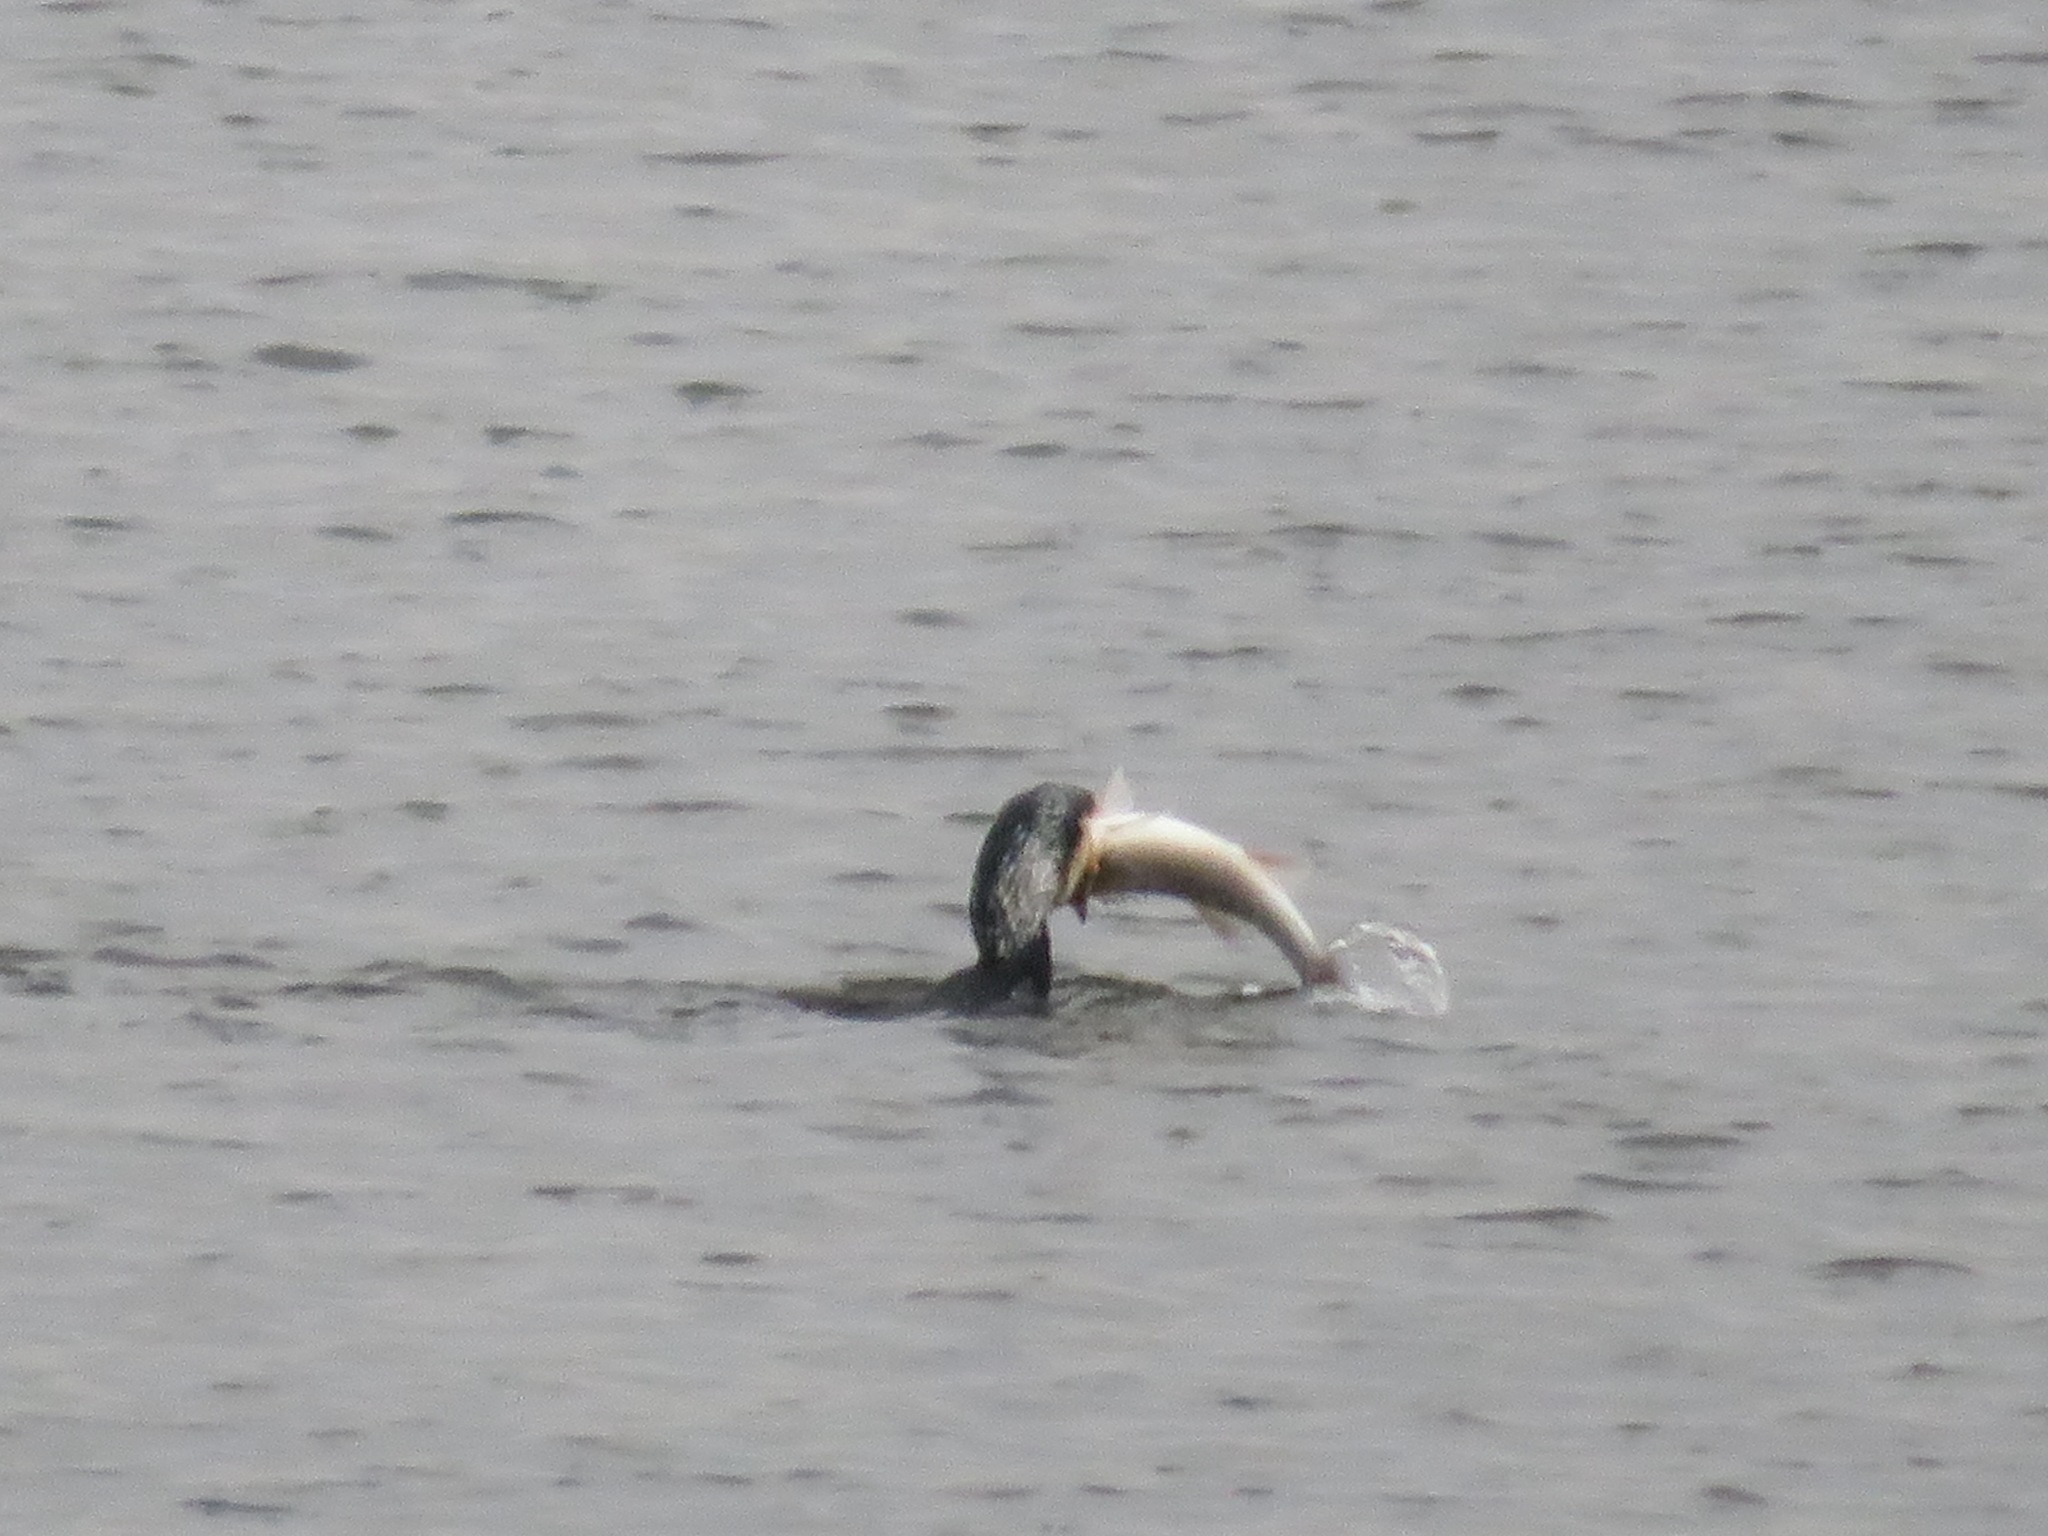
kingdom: Animalia
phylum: Chordata
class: Aves
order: Suliformes
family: Phalacrocoracidae
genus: Phalacrocorax
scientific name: Phalacrocorax carbo
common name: Great cormorant
